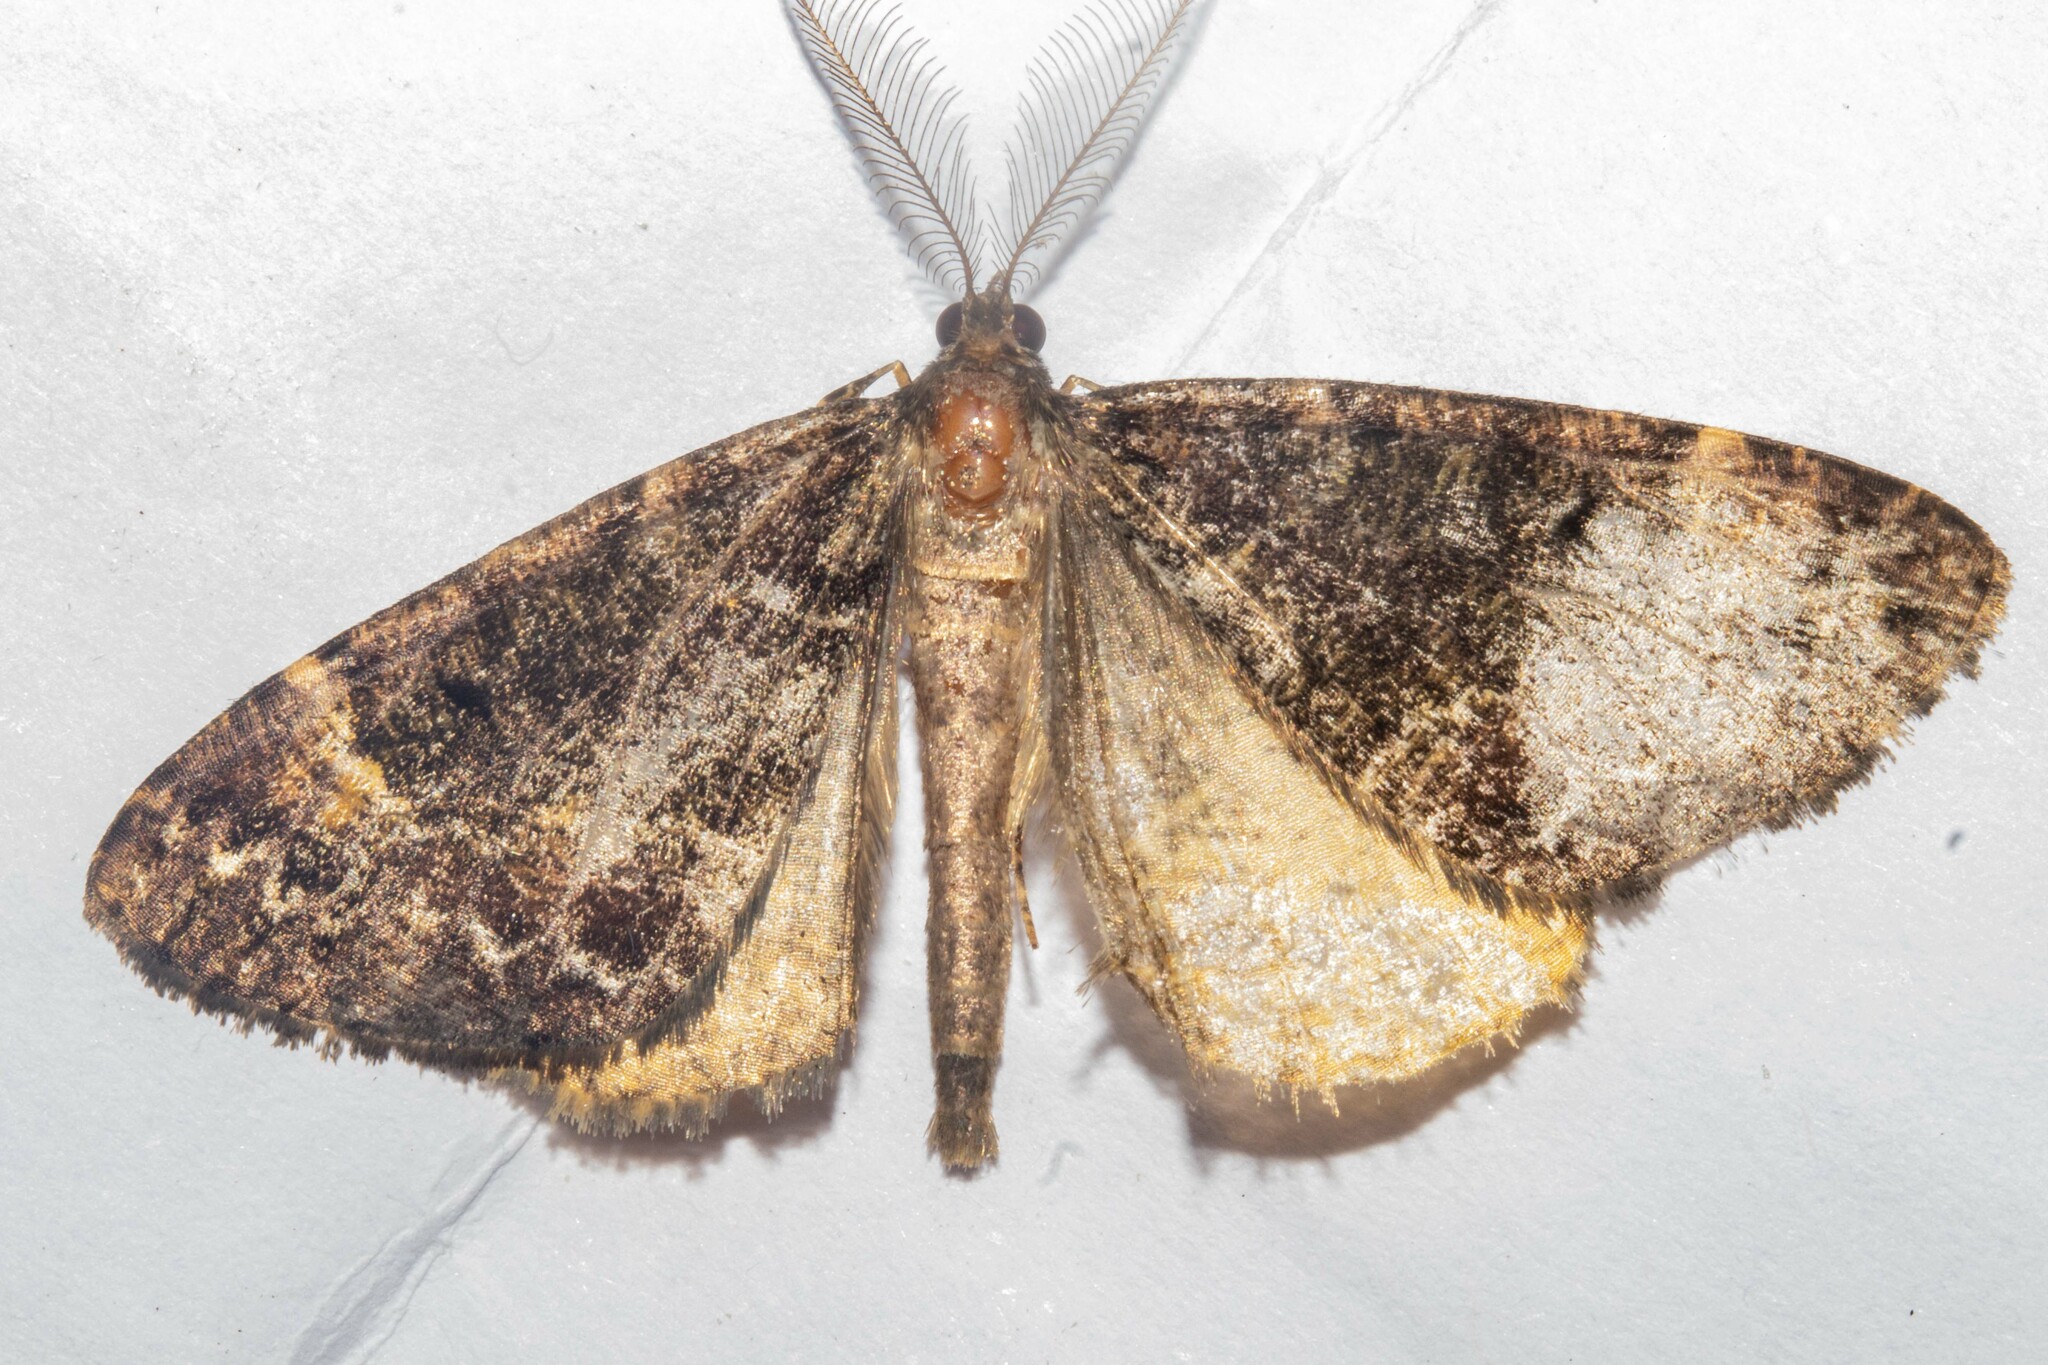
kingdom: Animalia
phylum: Arthropoda
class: Insecta
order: Lepidoptera
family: Geometridae
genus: Pseudocoremia
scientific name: Pseudocoremia productata
